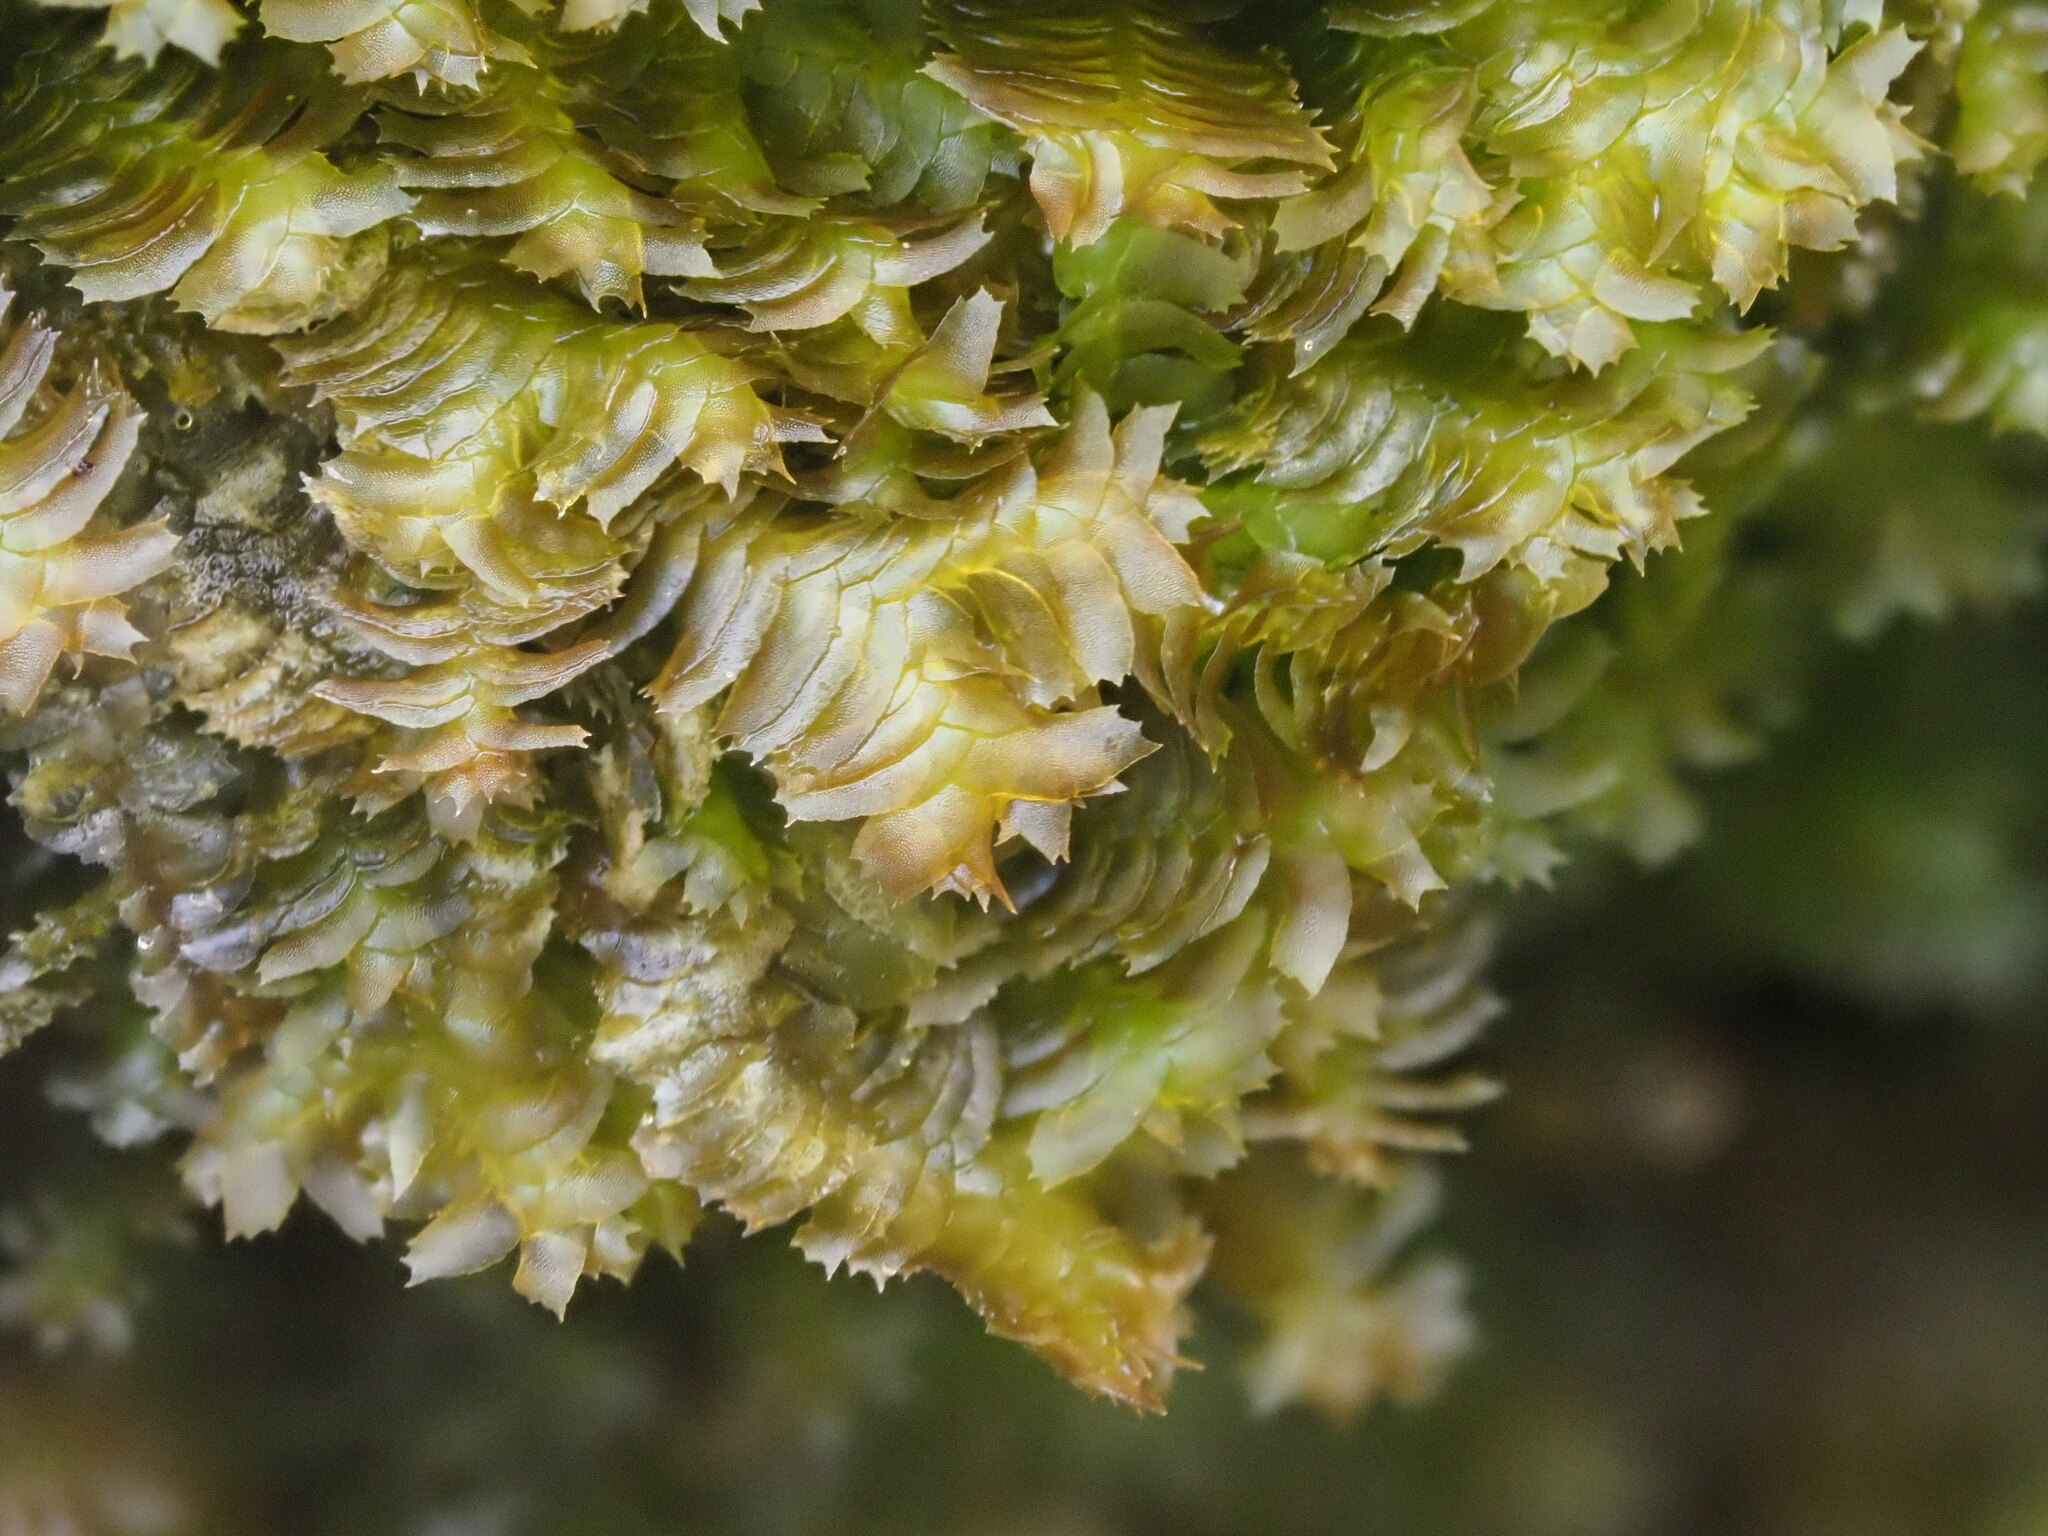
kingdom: Plantae
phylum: Marchantiophyta
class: Jungermanniopsida
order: Jungermanniales
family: Lepidoziaceae
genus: Bazzania
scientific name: Bazzania praerupta
